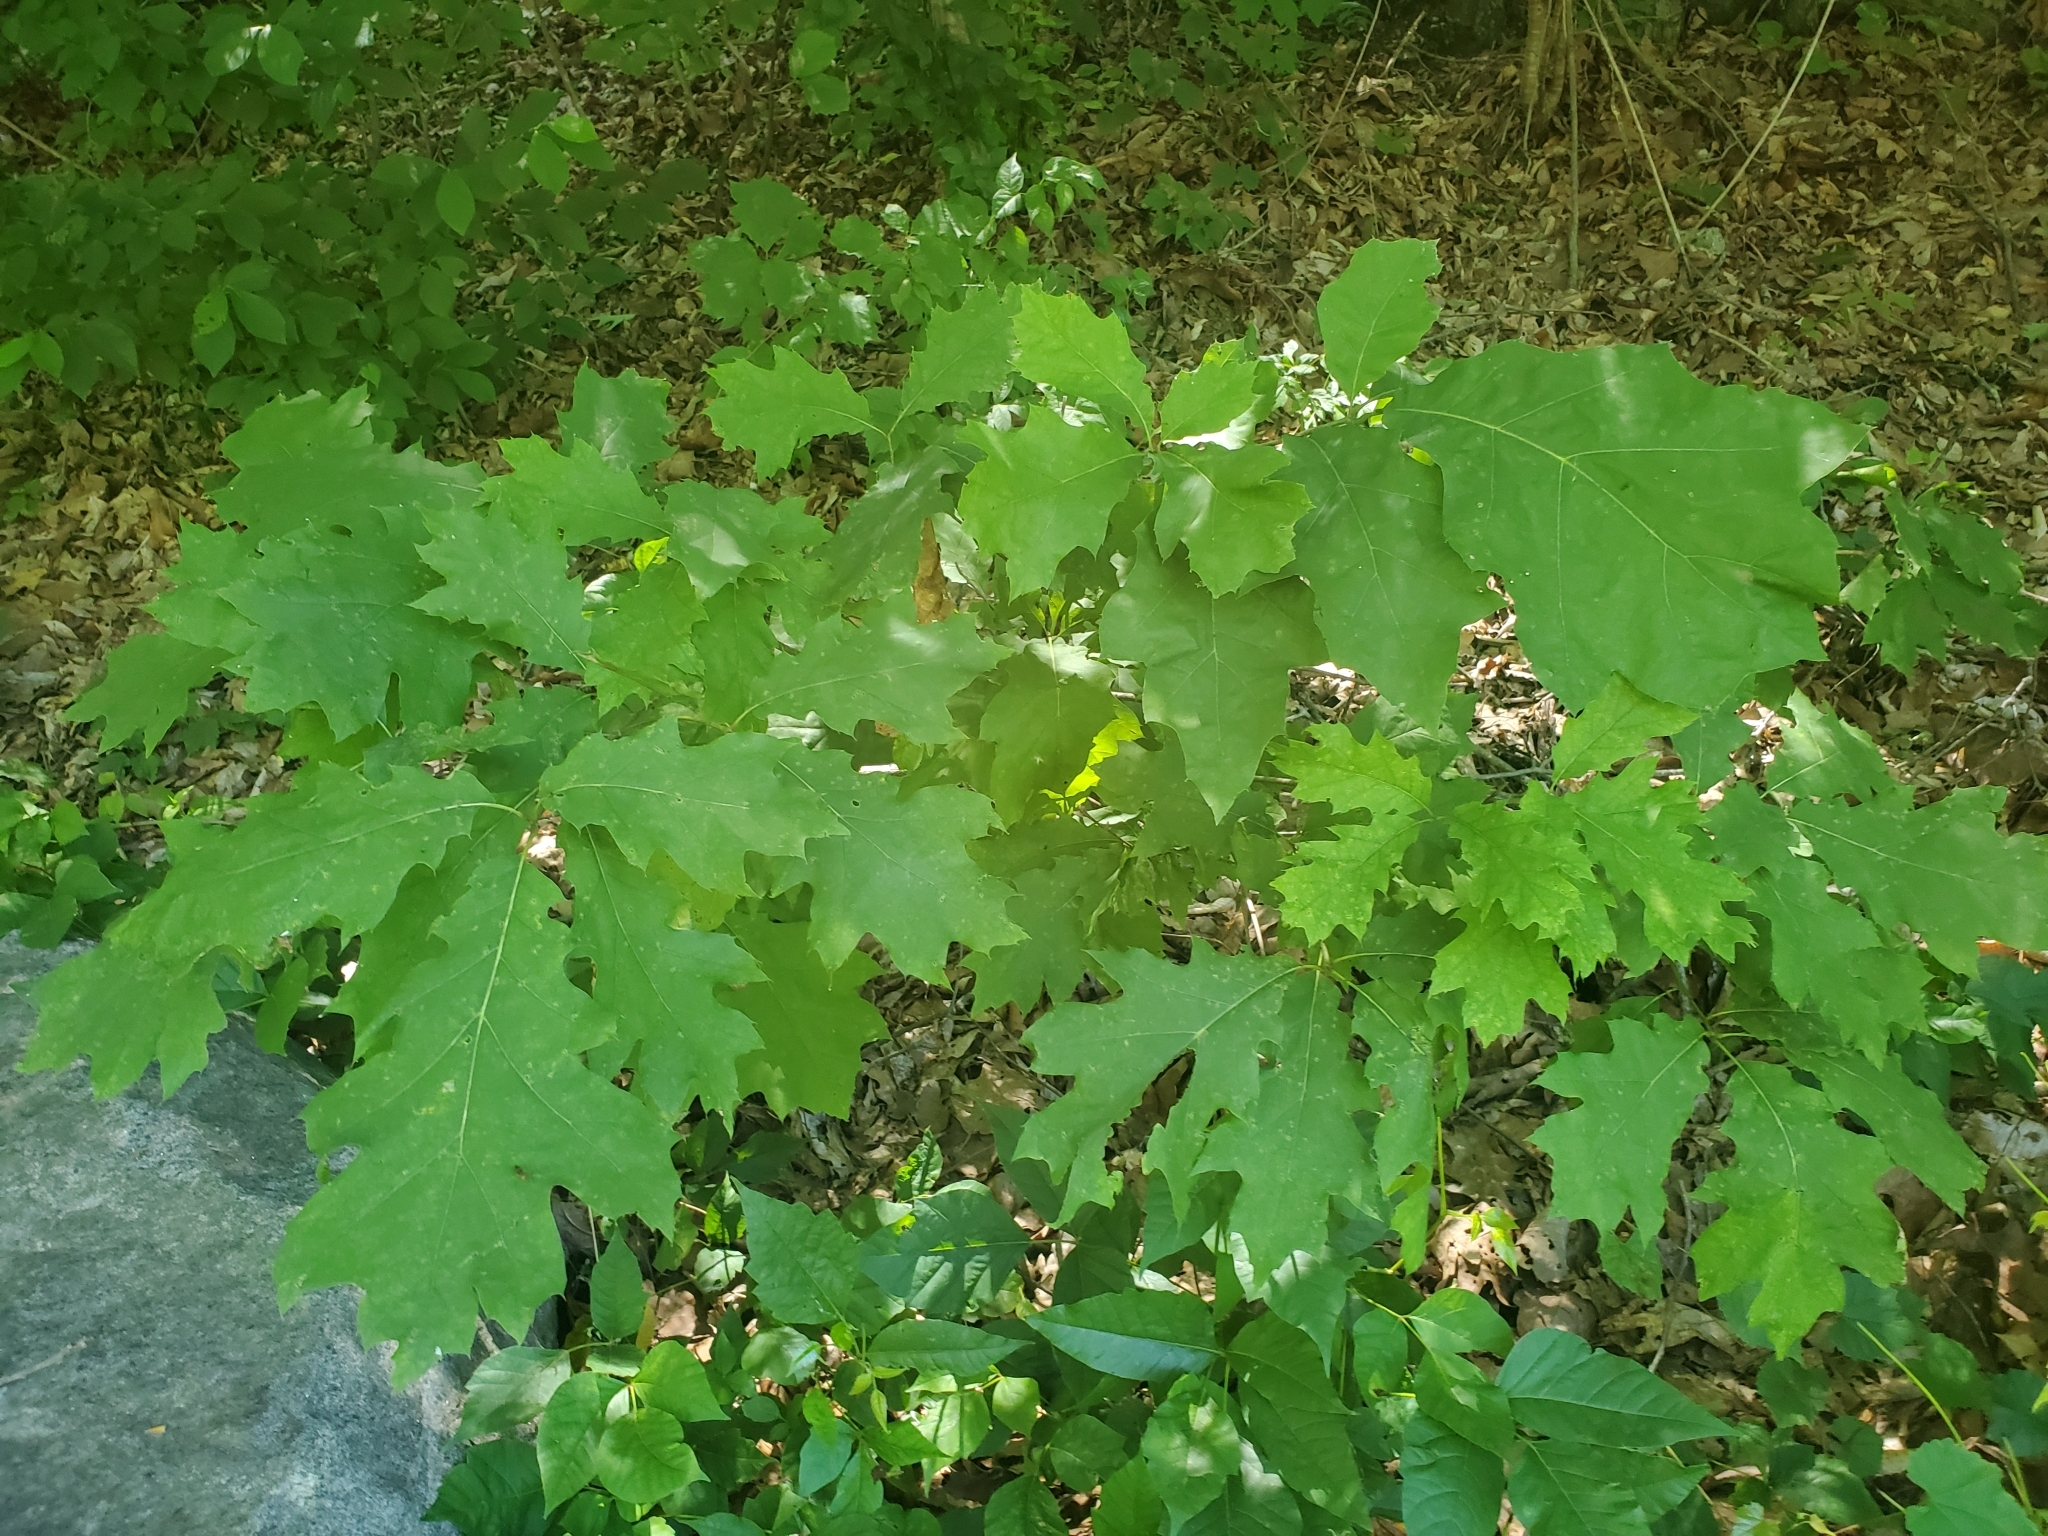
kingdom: Plantae
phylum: Tracheophyta
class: Magnoliopsida
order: Fagales
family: Fagaceae
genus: Quercus
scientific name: Quercus rubra
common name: Red oak
